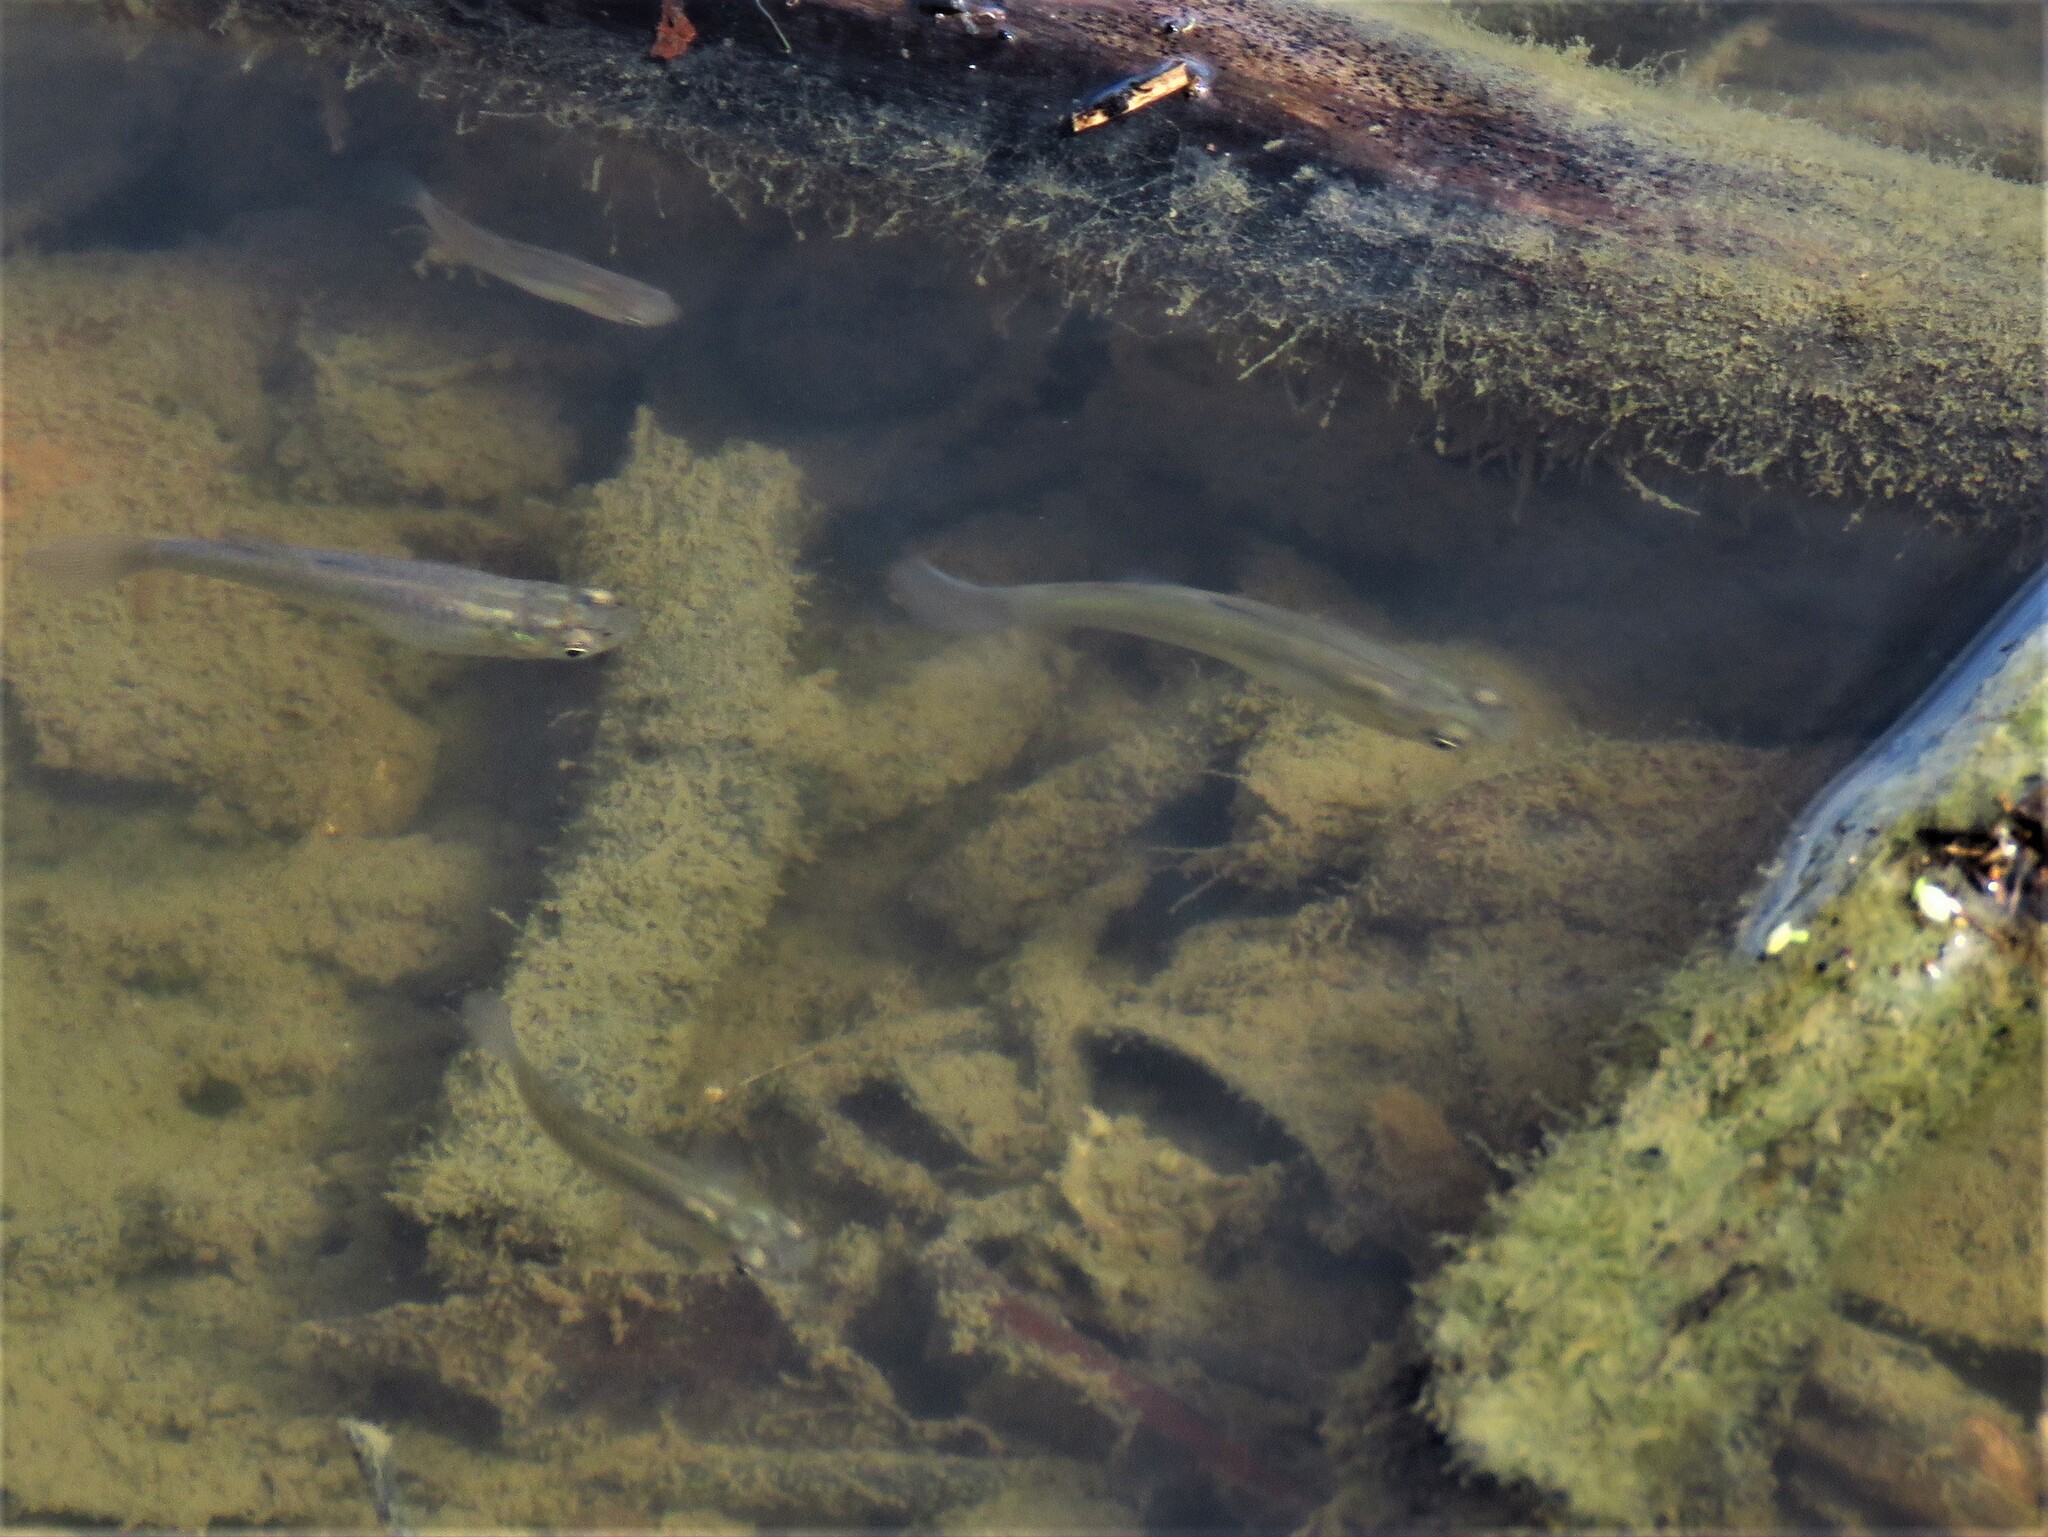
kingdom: Animalia
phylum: Chordata
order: Cyprinodontiformes
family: Poeciliidae
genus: Gambusia
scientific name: Gambusia affinis
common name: Mosquitofish
